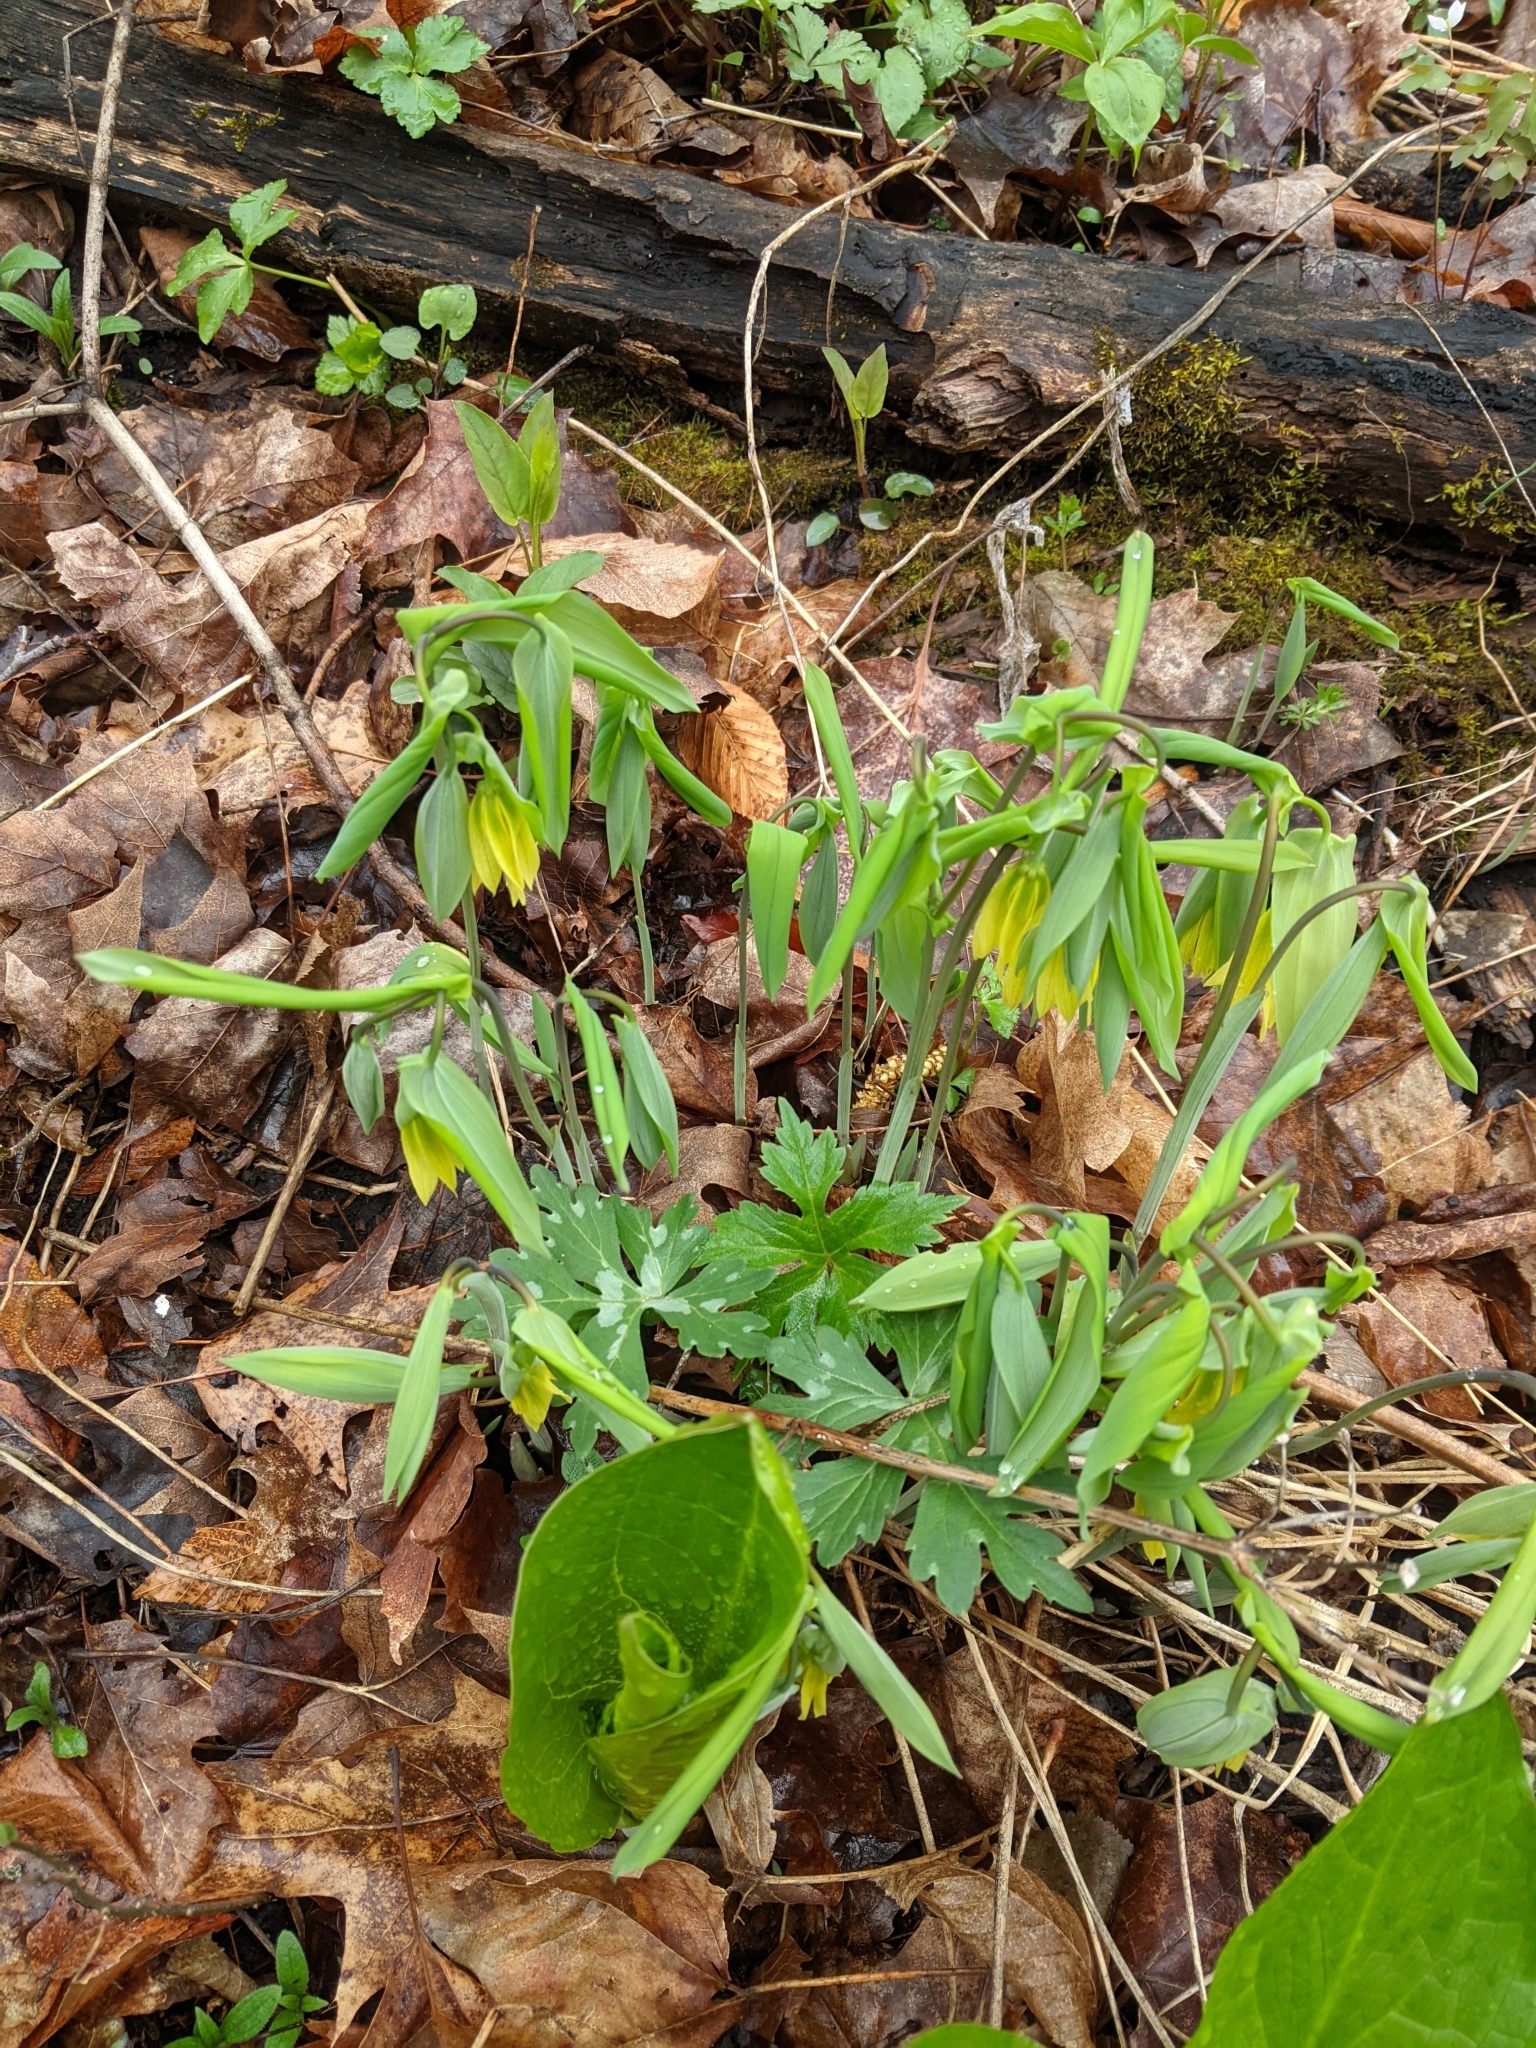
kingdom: Plantae
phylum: Tracheophyta
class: Liliopsida
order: Liliales
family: Colchicaceae
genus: Uvularia
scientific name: Uvularia grandiflora
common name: Bellwort
